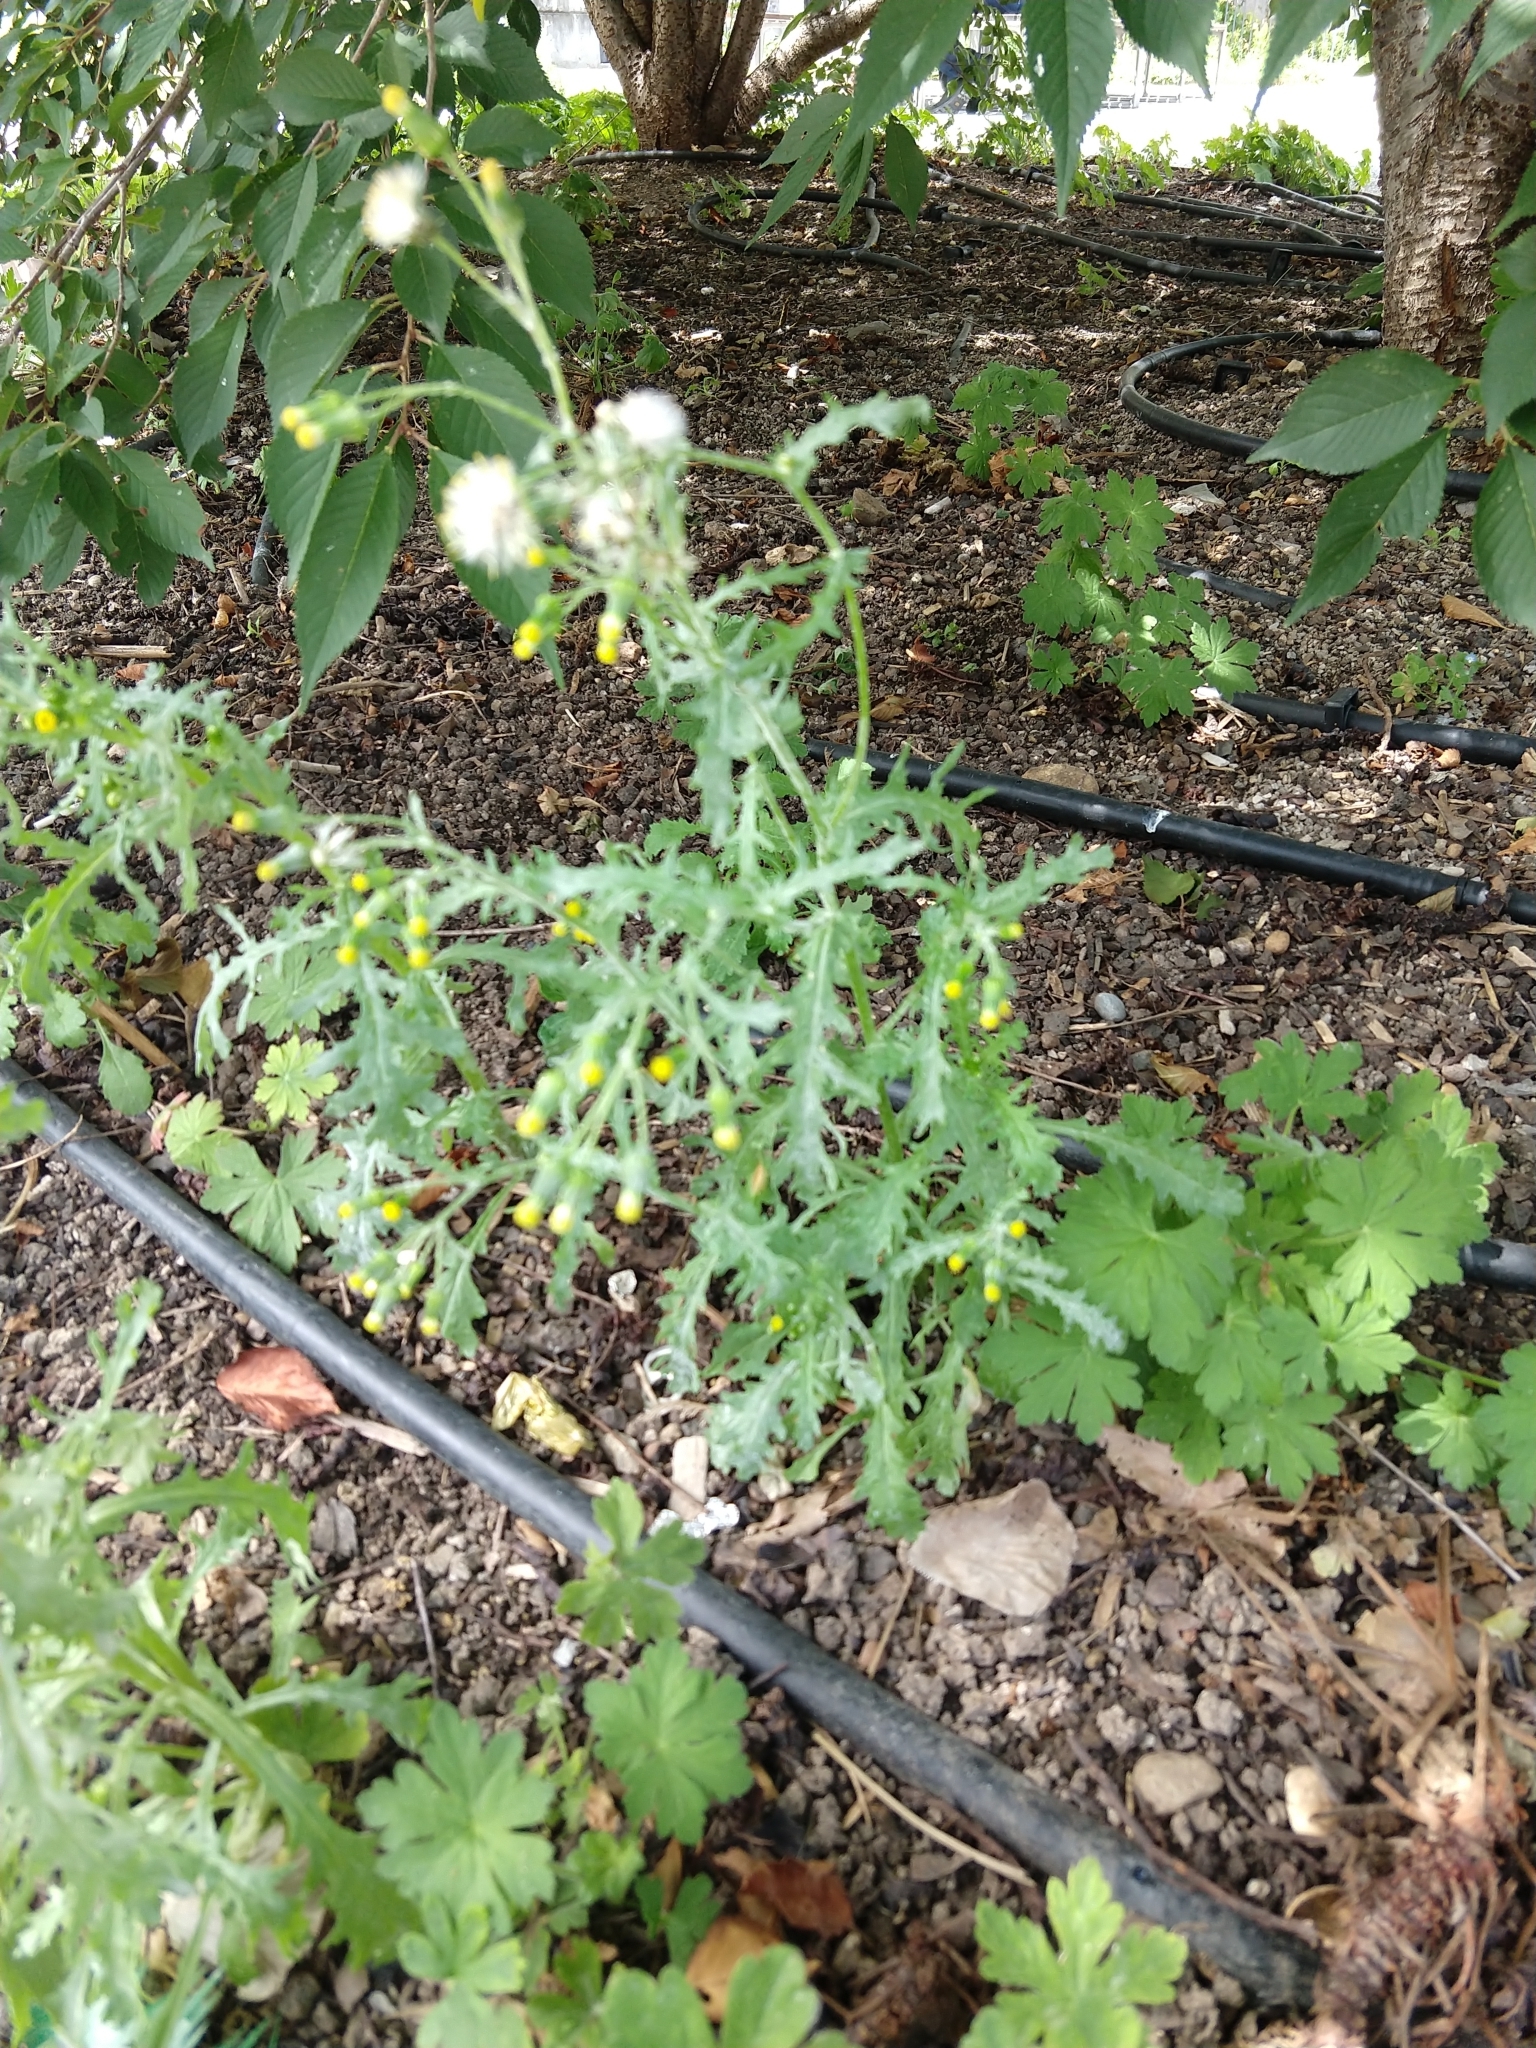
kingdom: Plantae
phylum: Tracheophyta
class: Magnoliopsida
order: Asterales
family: Asteraceae
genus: Senecio
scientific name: Senecio vulgaris
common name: Old-man-in-the-spring
